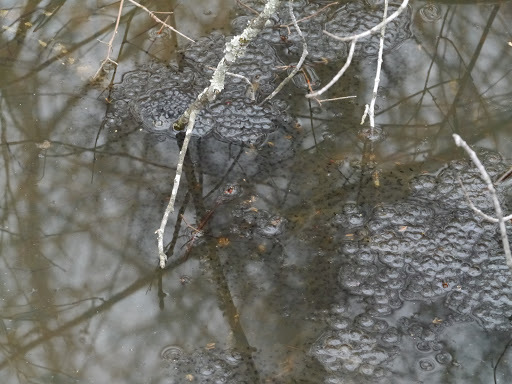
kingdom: Animalia
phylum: Chordata
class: Amphibia
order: Anura
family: Ranidae
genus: Lithobates
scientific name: Lithobates sylvaticus
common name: Wood frog
